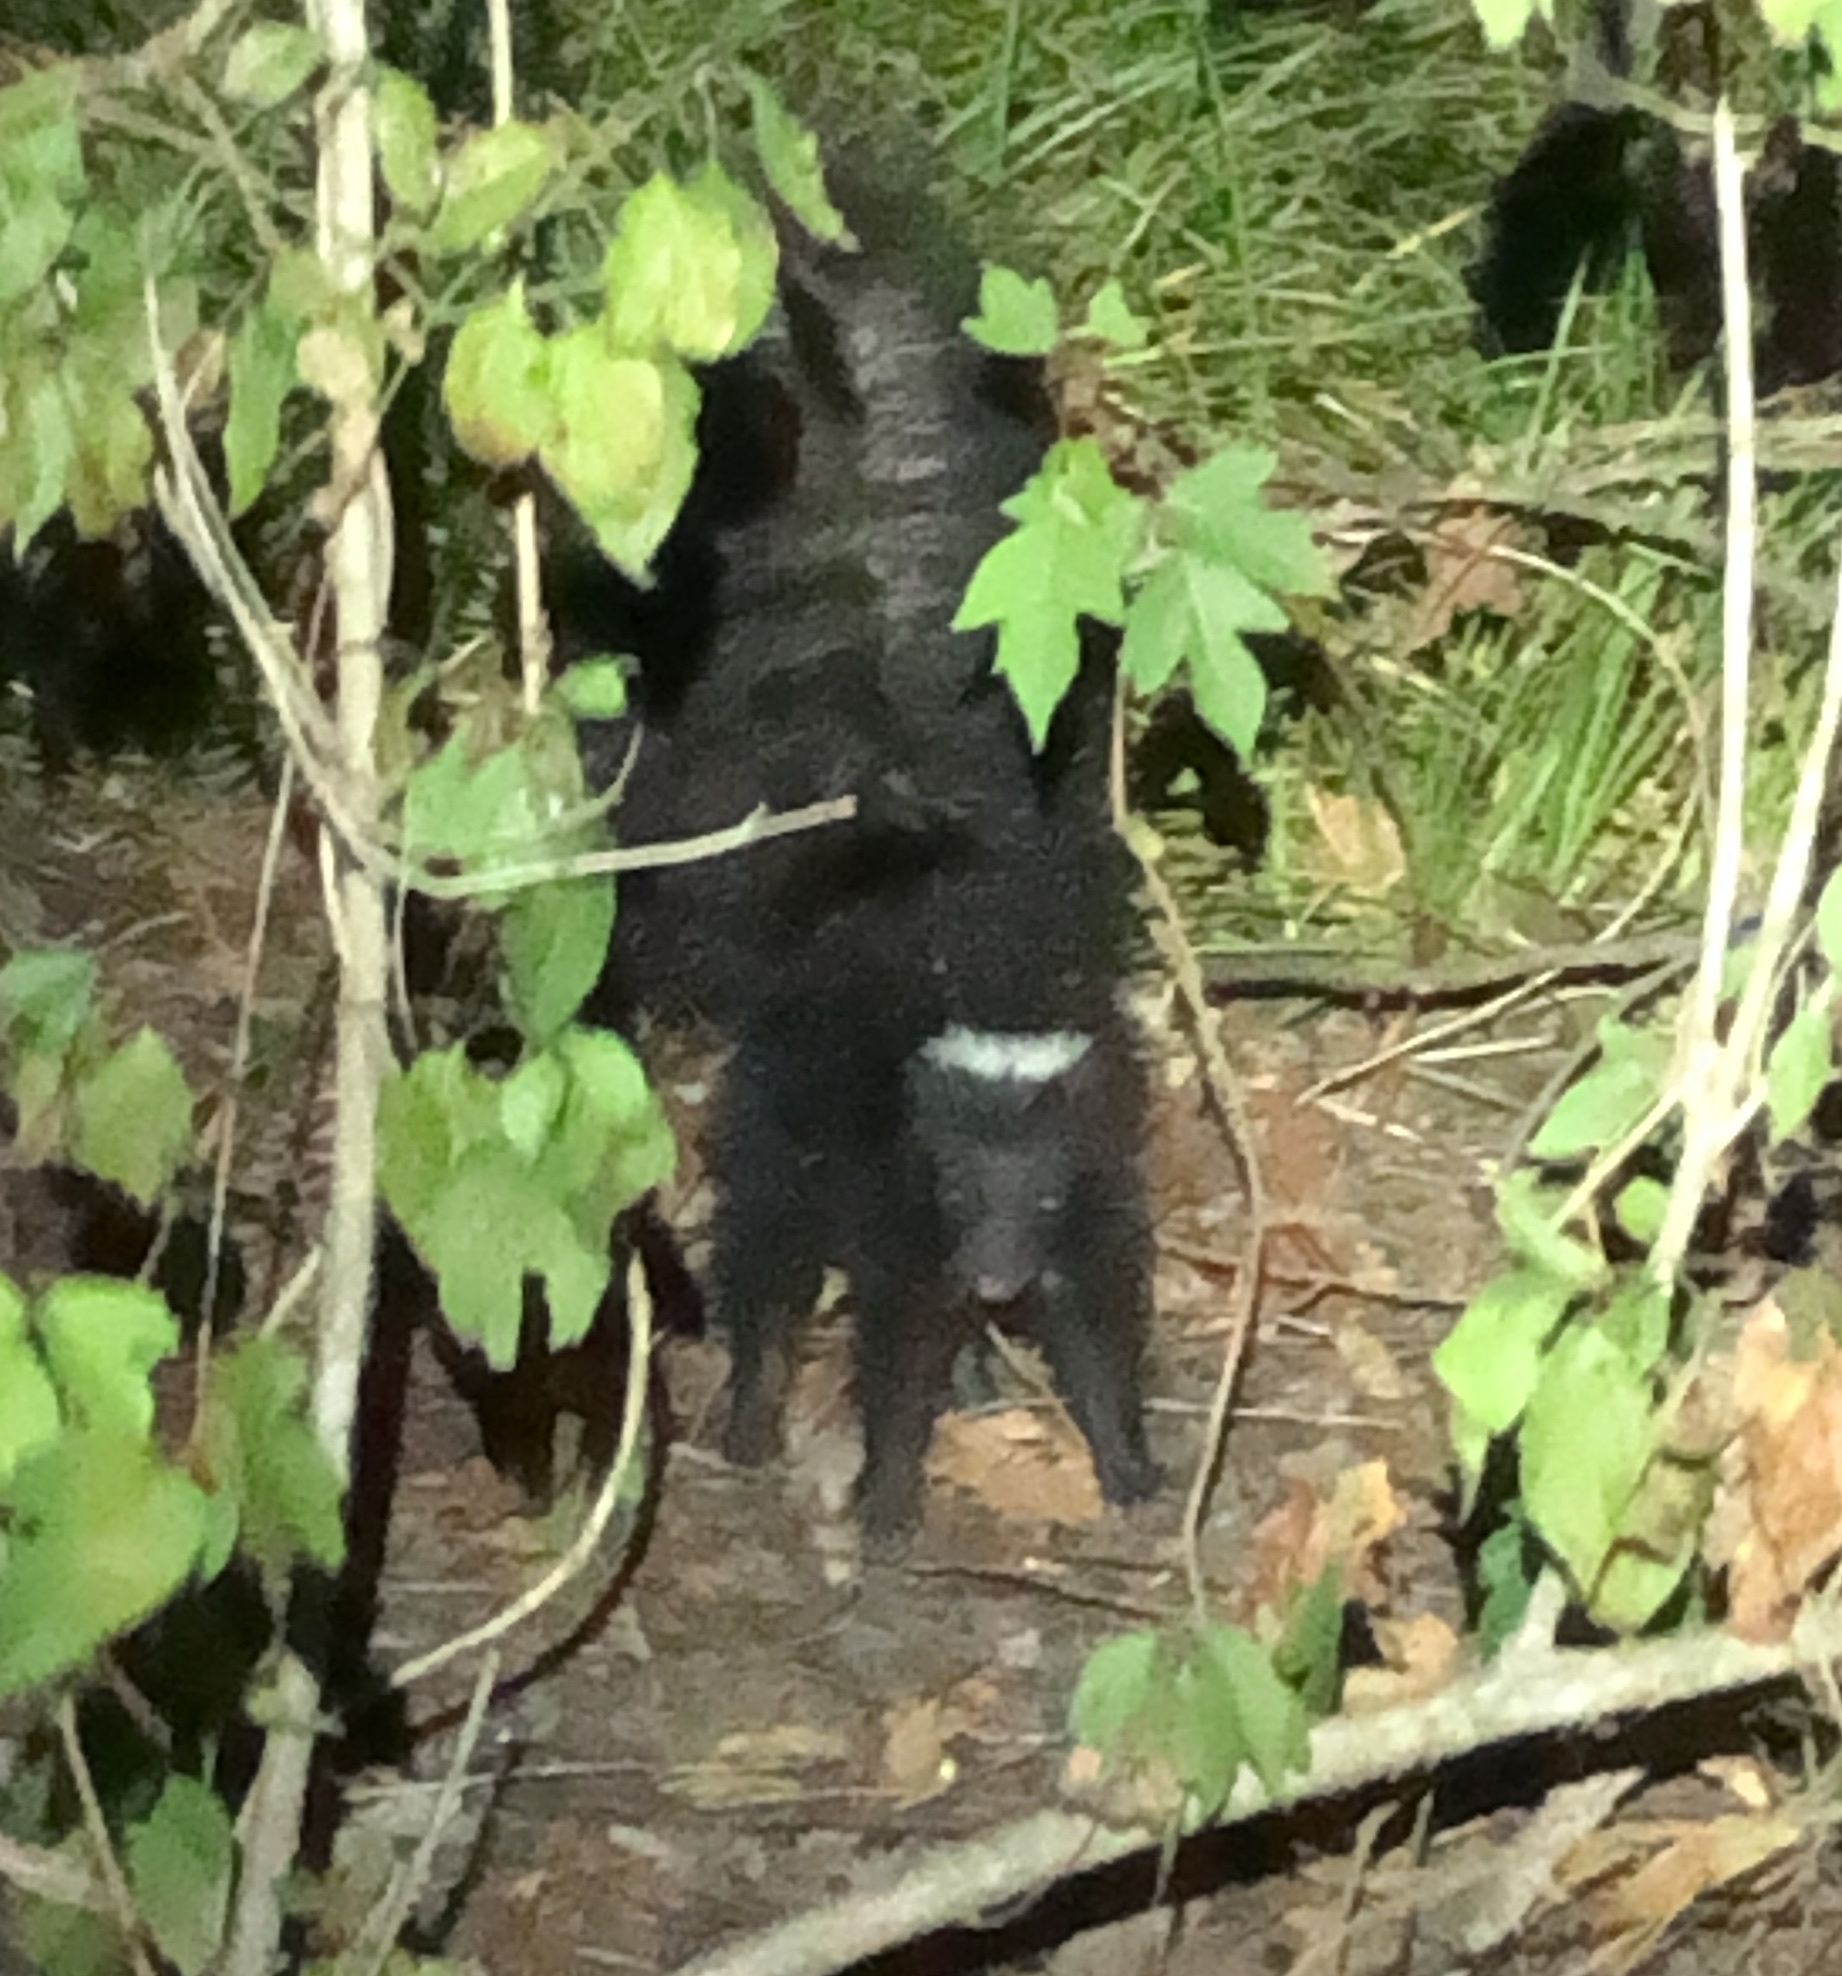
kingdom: Animalia
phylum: Chordata
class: Mammalia
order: Carnivora
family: Mephitidae
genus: Mephitis
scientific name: Mephitis mephitis
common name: Striped skunk
